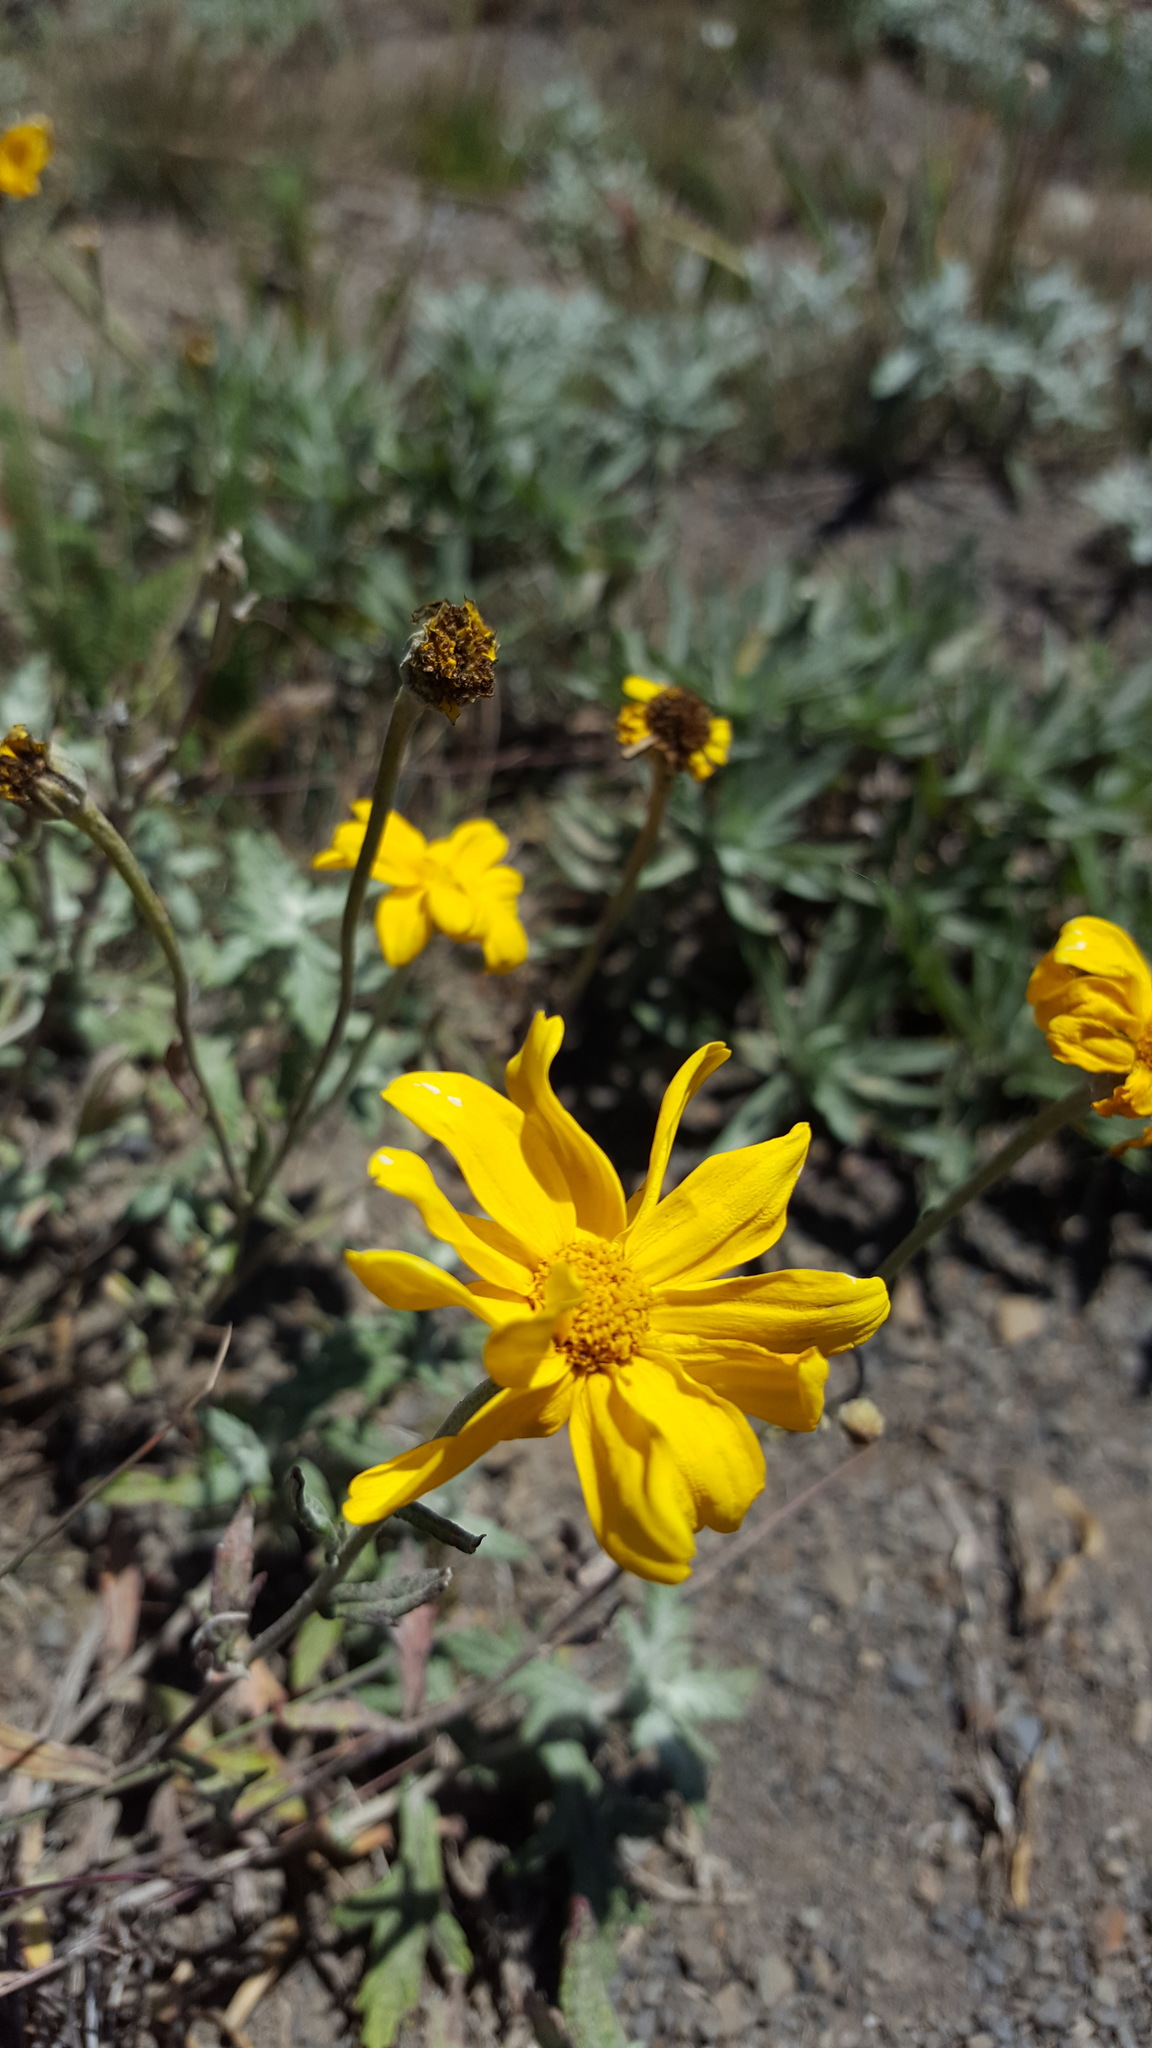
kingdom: Plantae
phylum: Tracheophyta
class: Magnoliopsida
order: Asterales
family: Asteraceae
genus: Eriophyllum
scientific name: Eriophyllum lanatum
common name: Common woolly-sunflower
